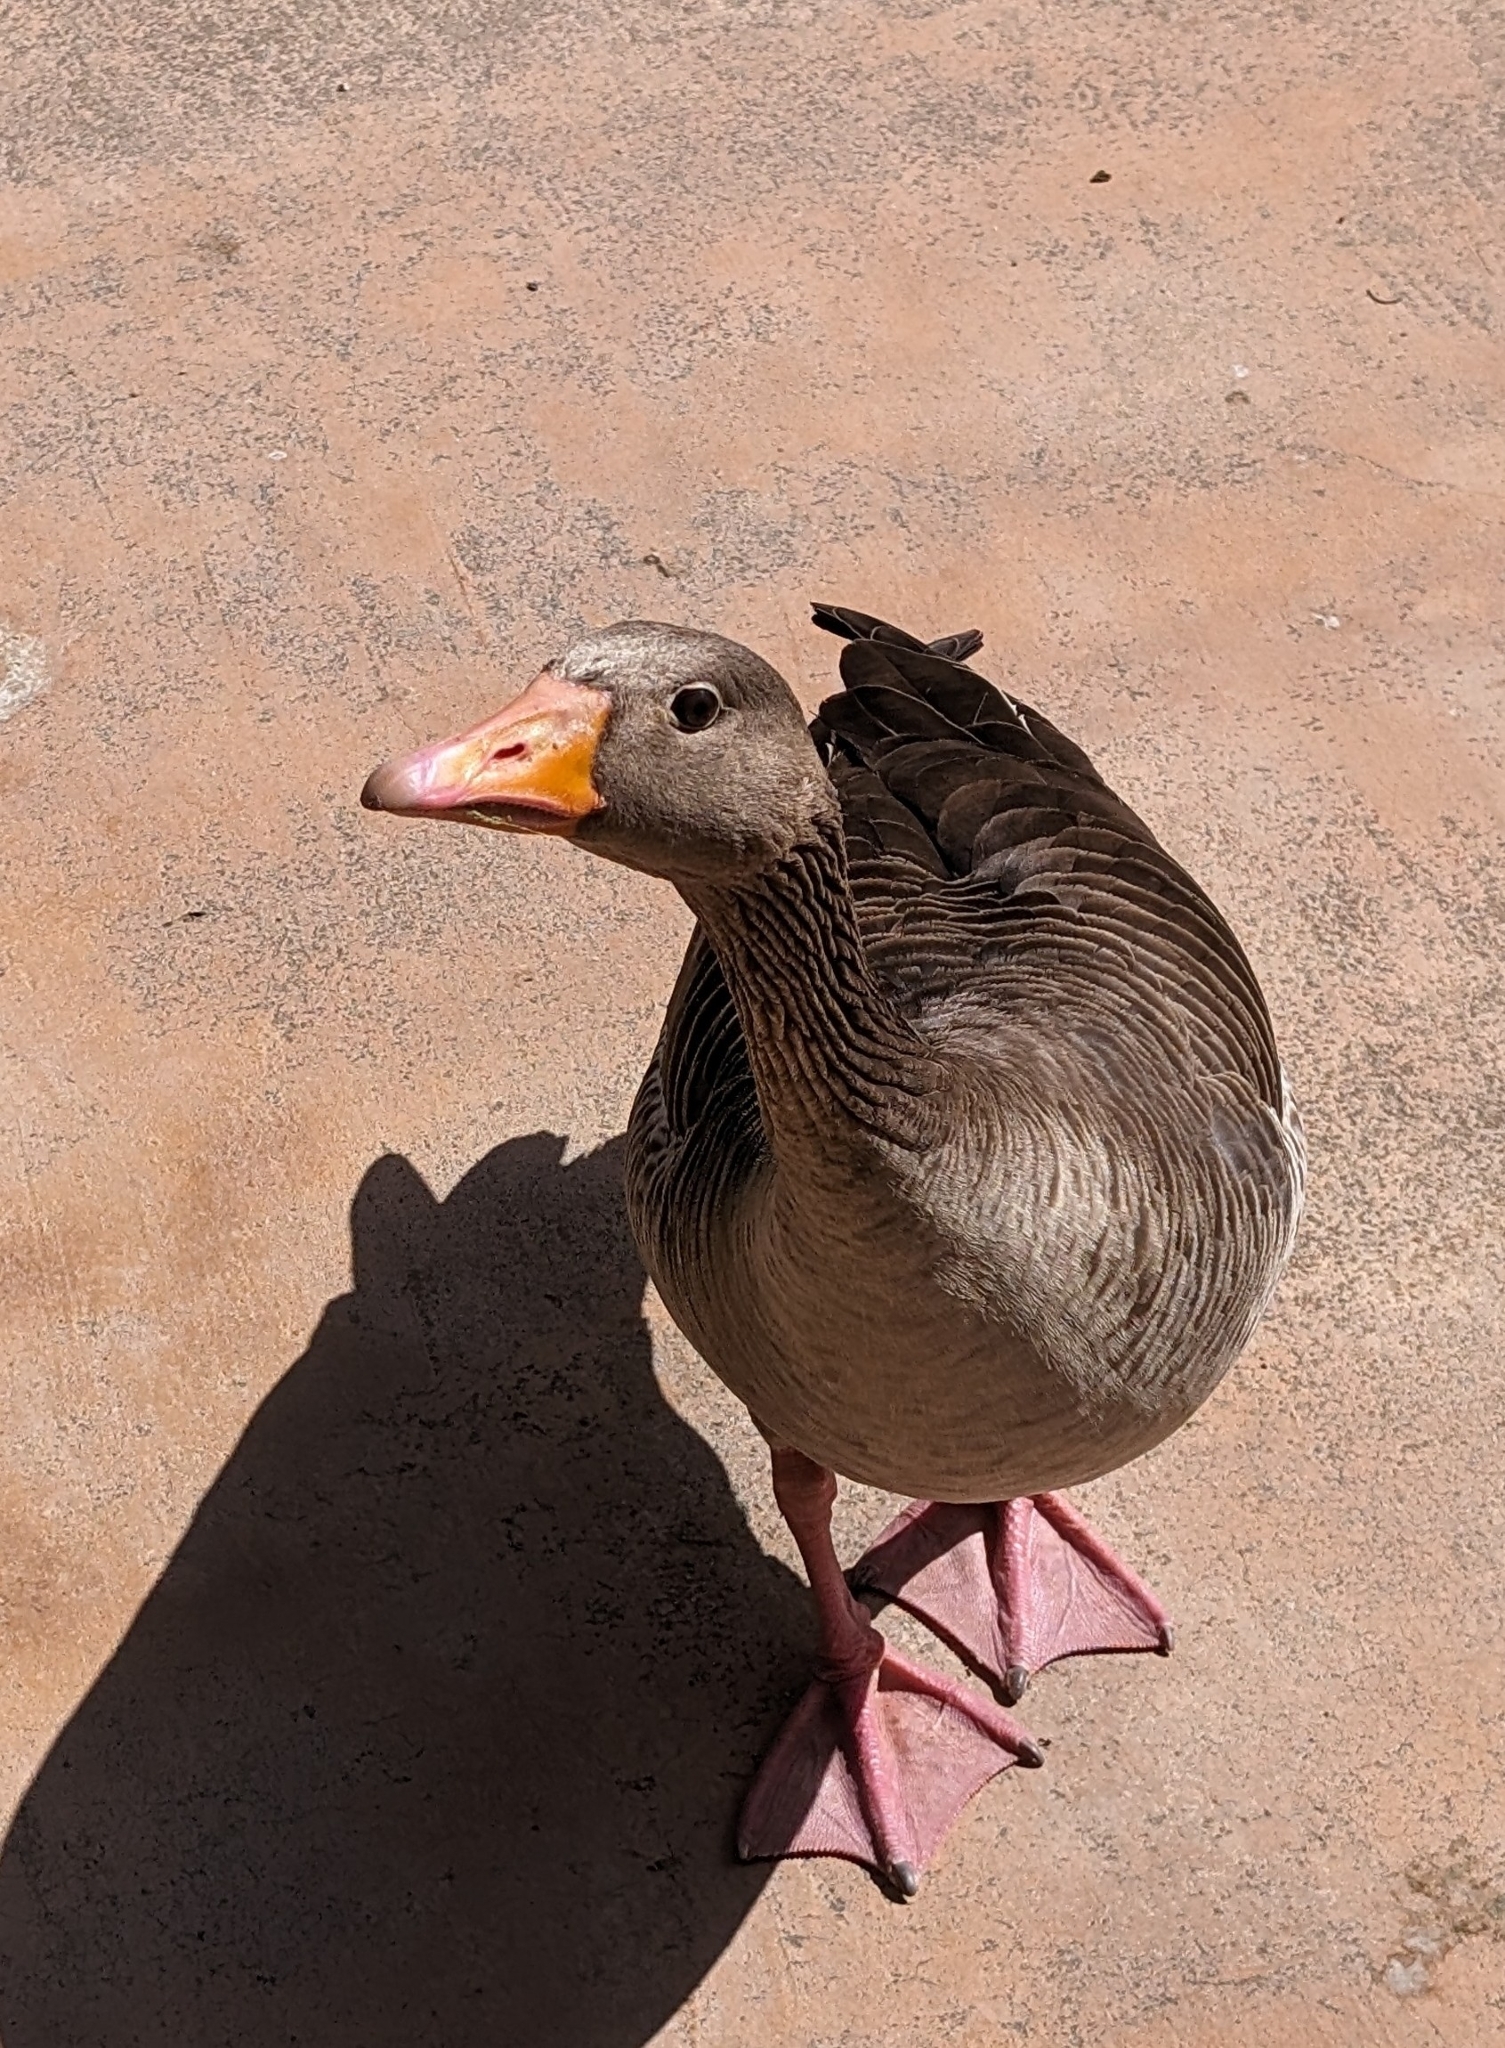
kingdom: Animalia
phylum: Chordata
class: Aves
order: Anseriformes
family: Anatidae
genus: Anser
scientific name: Anser anser
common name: Greylag goose
